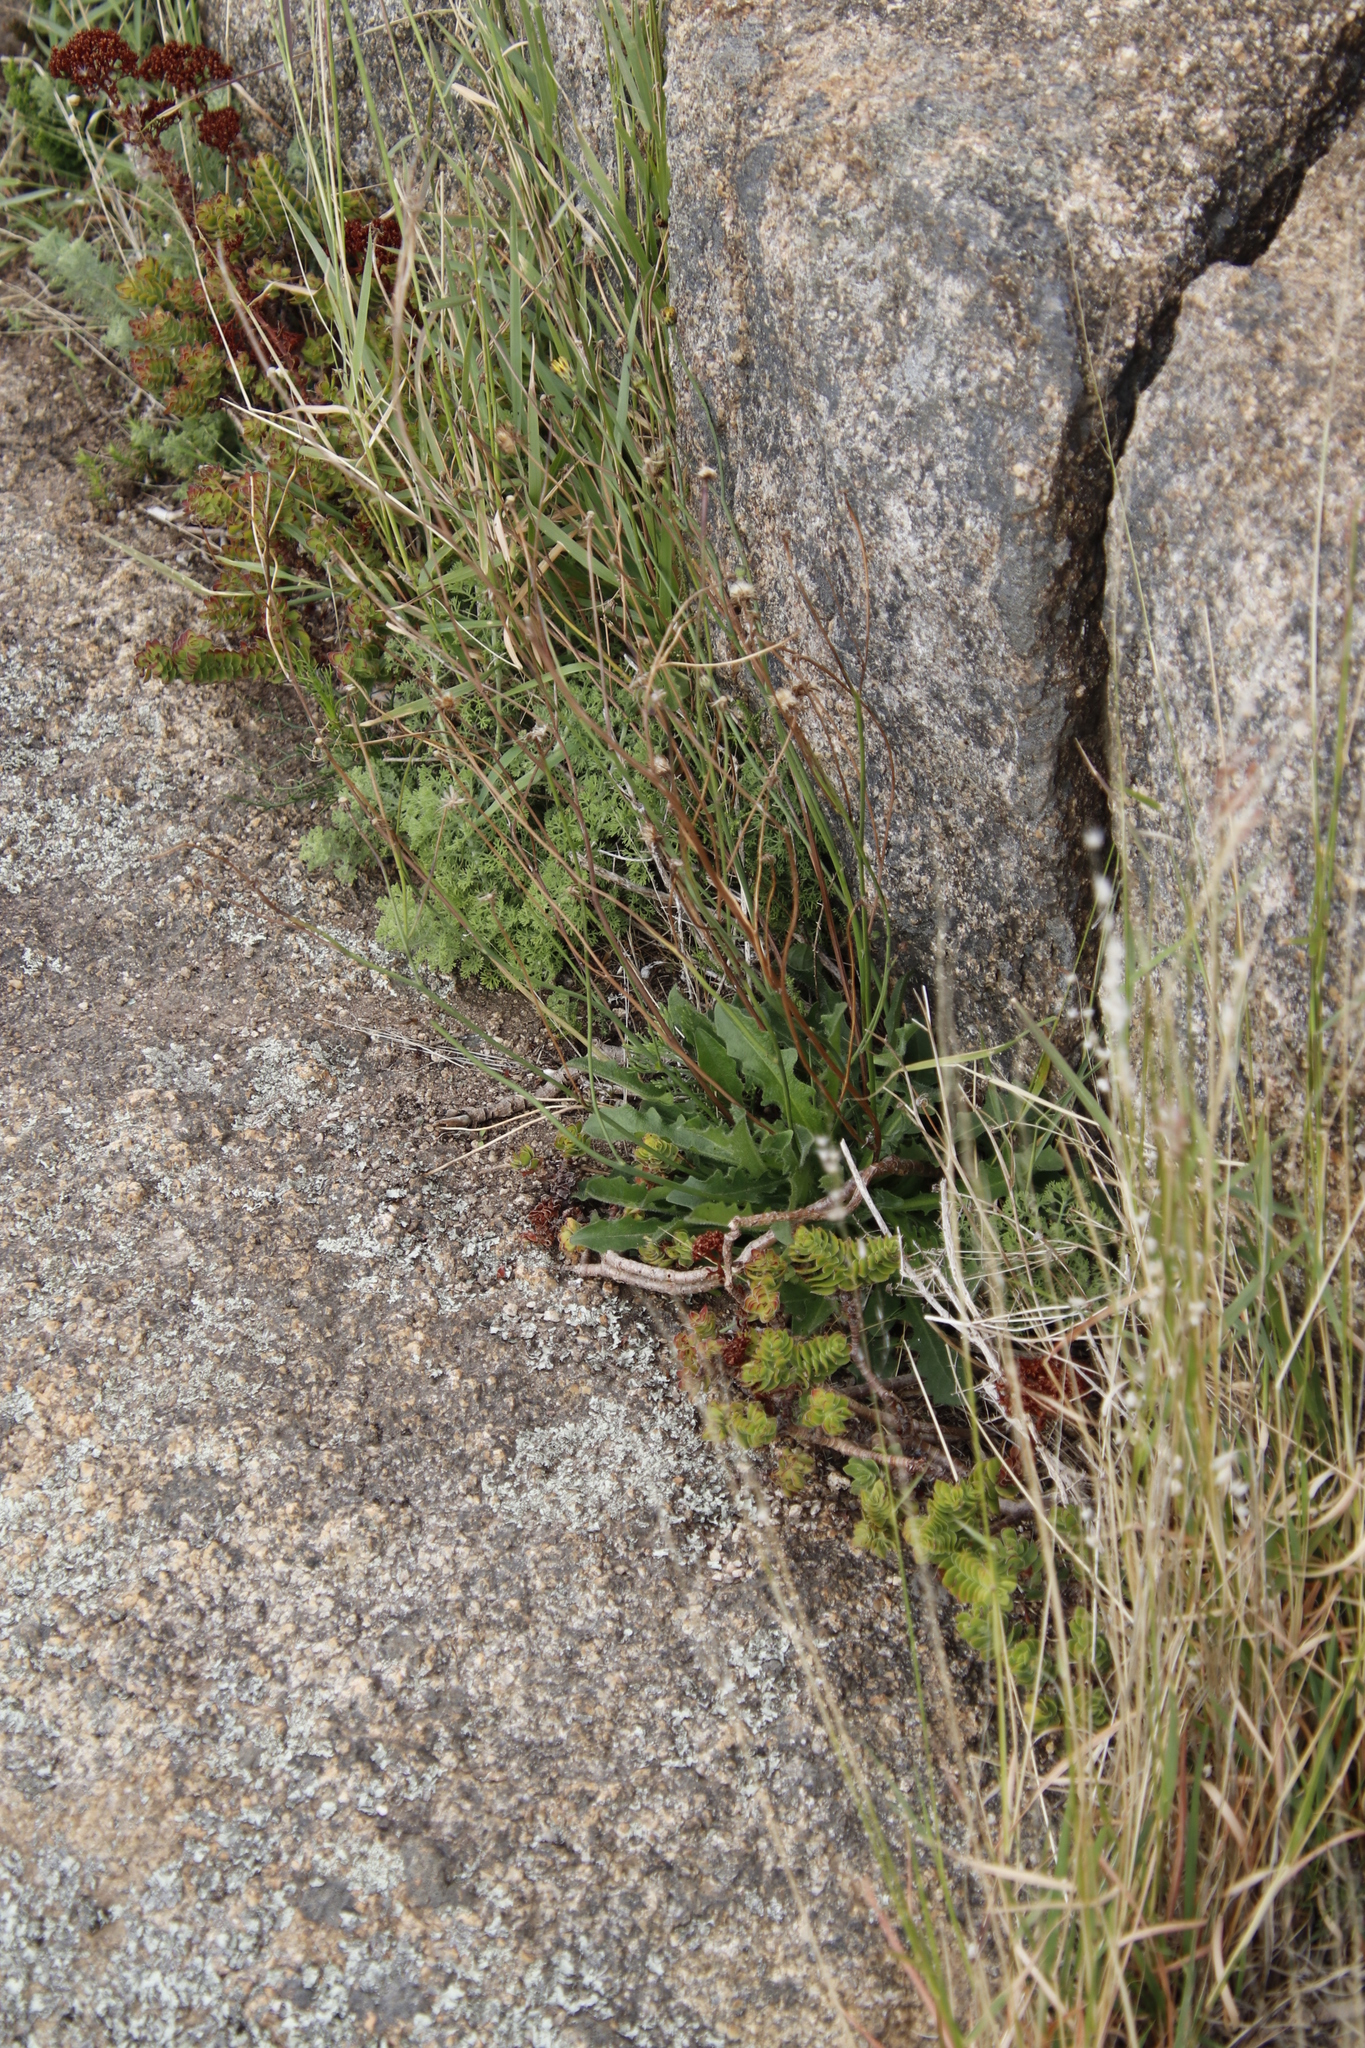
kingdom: Plantae
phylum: Tracheophyta
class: Magnoliopsida
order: Asterales
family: Asteraceae
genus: Hypochaeris
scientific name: Hypochaeris radicata
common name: Flatweed
